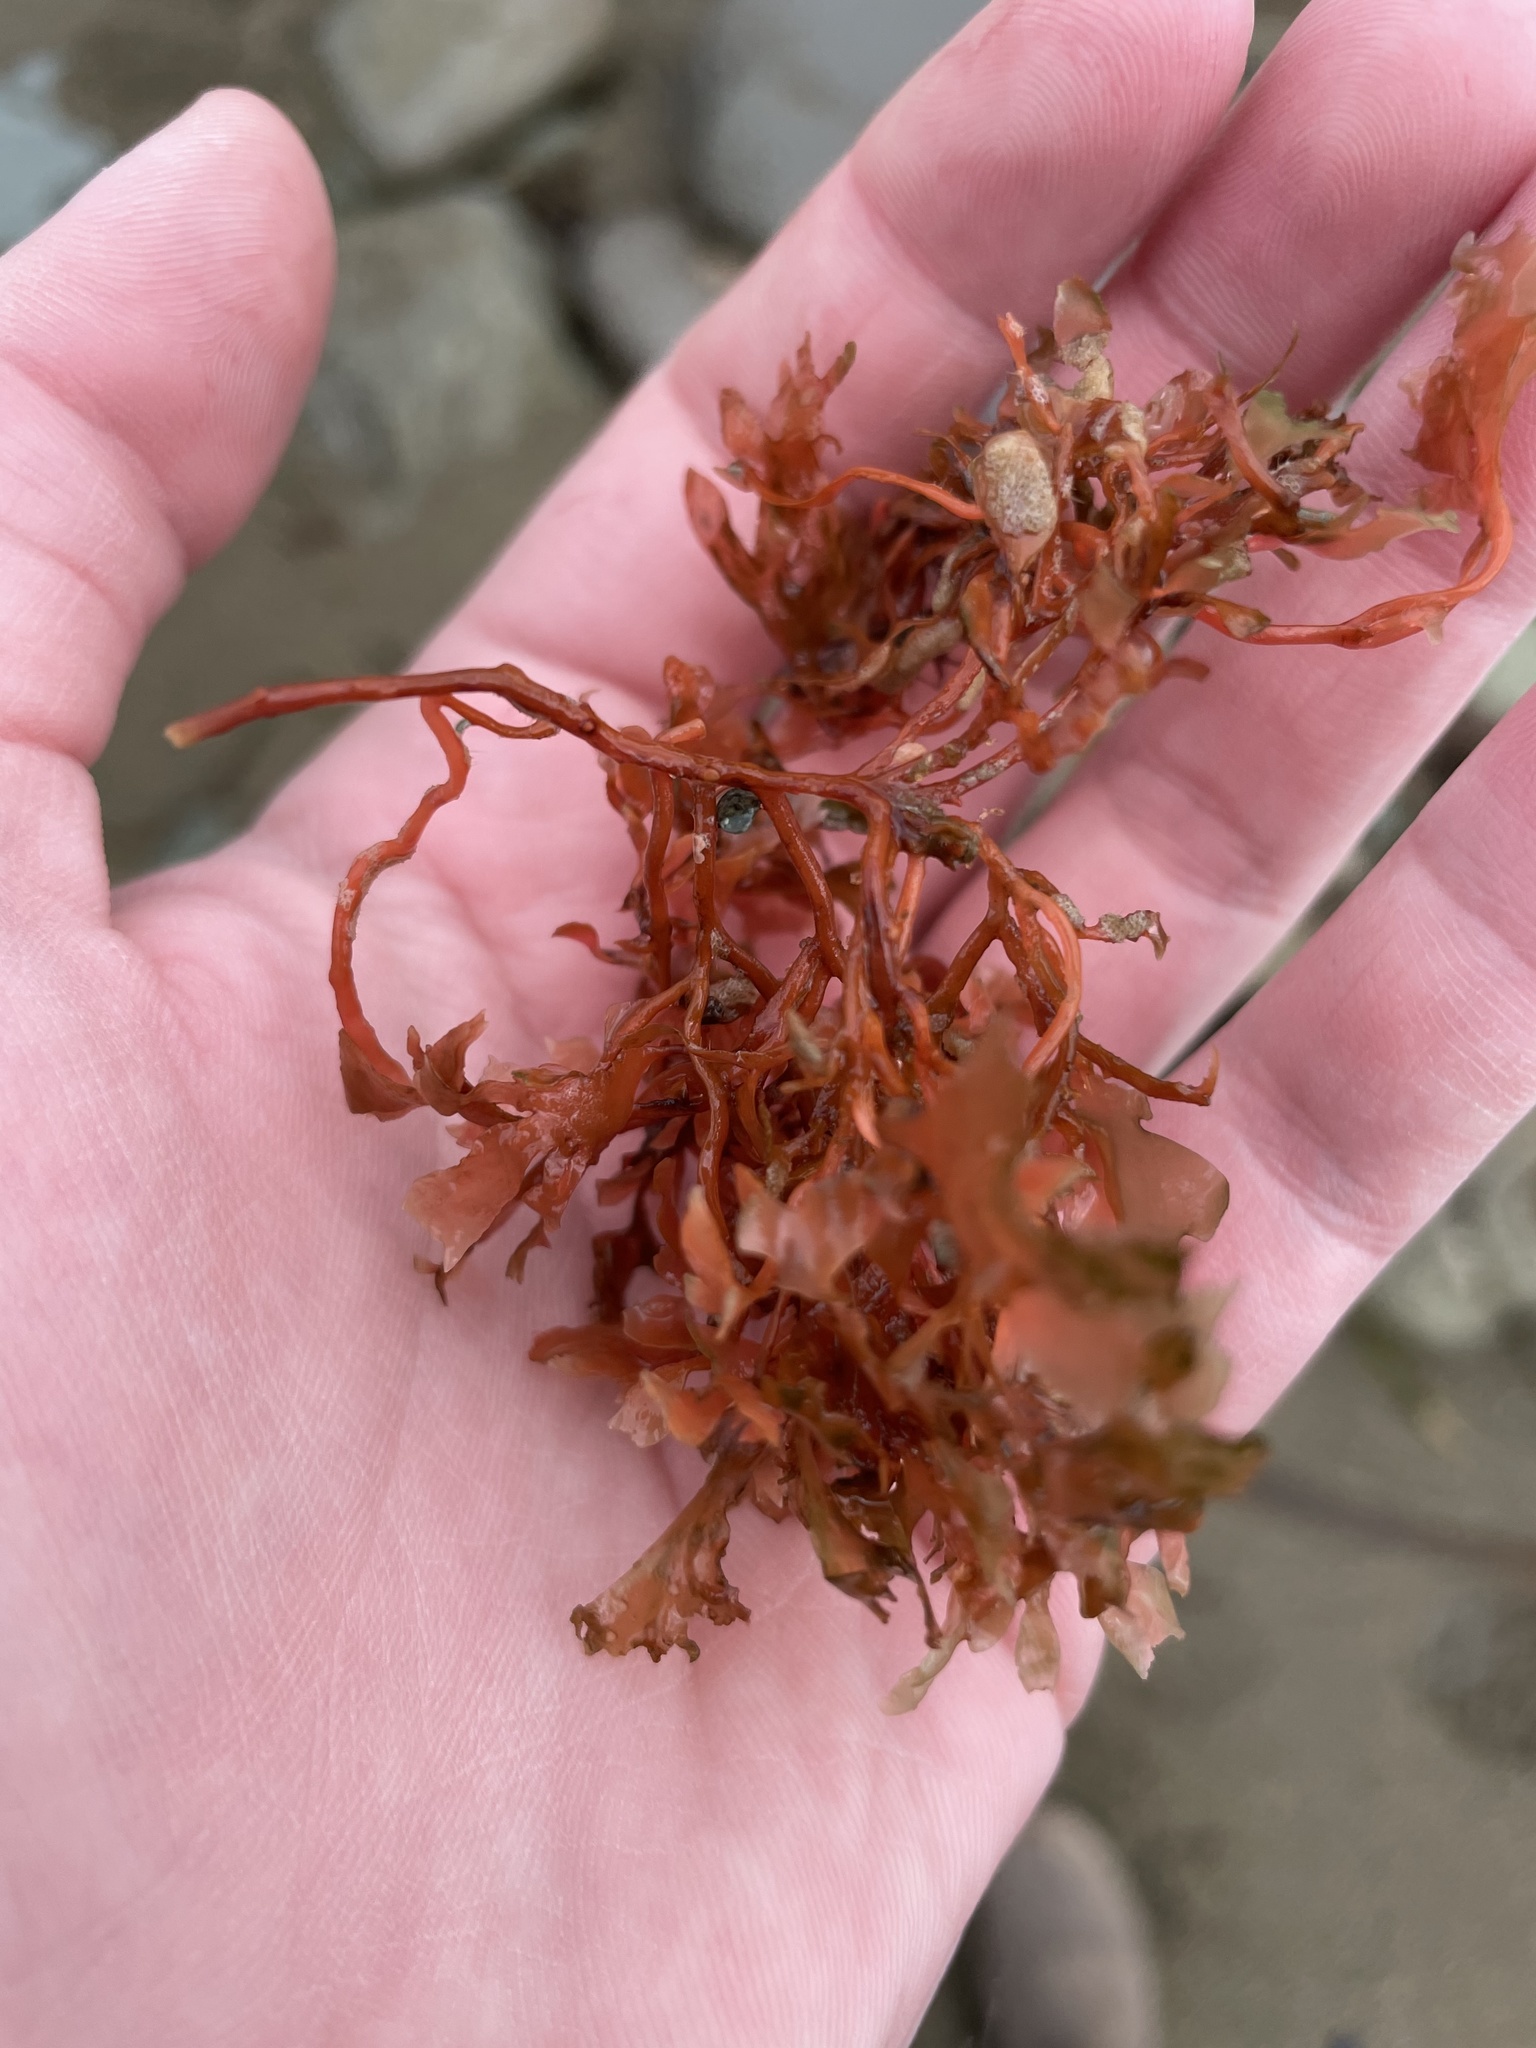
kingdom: Plantae
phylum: Rhodophyta
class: Florideophyceae
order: Gigartinales
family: Gigartinaceae
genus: Chondrus
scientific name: Chondrus crispus
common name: Carrageen
